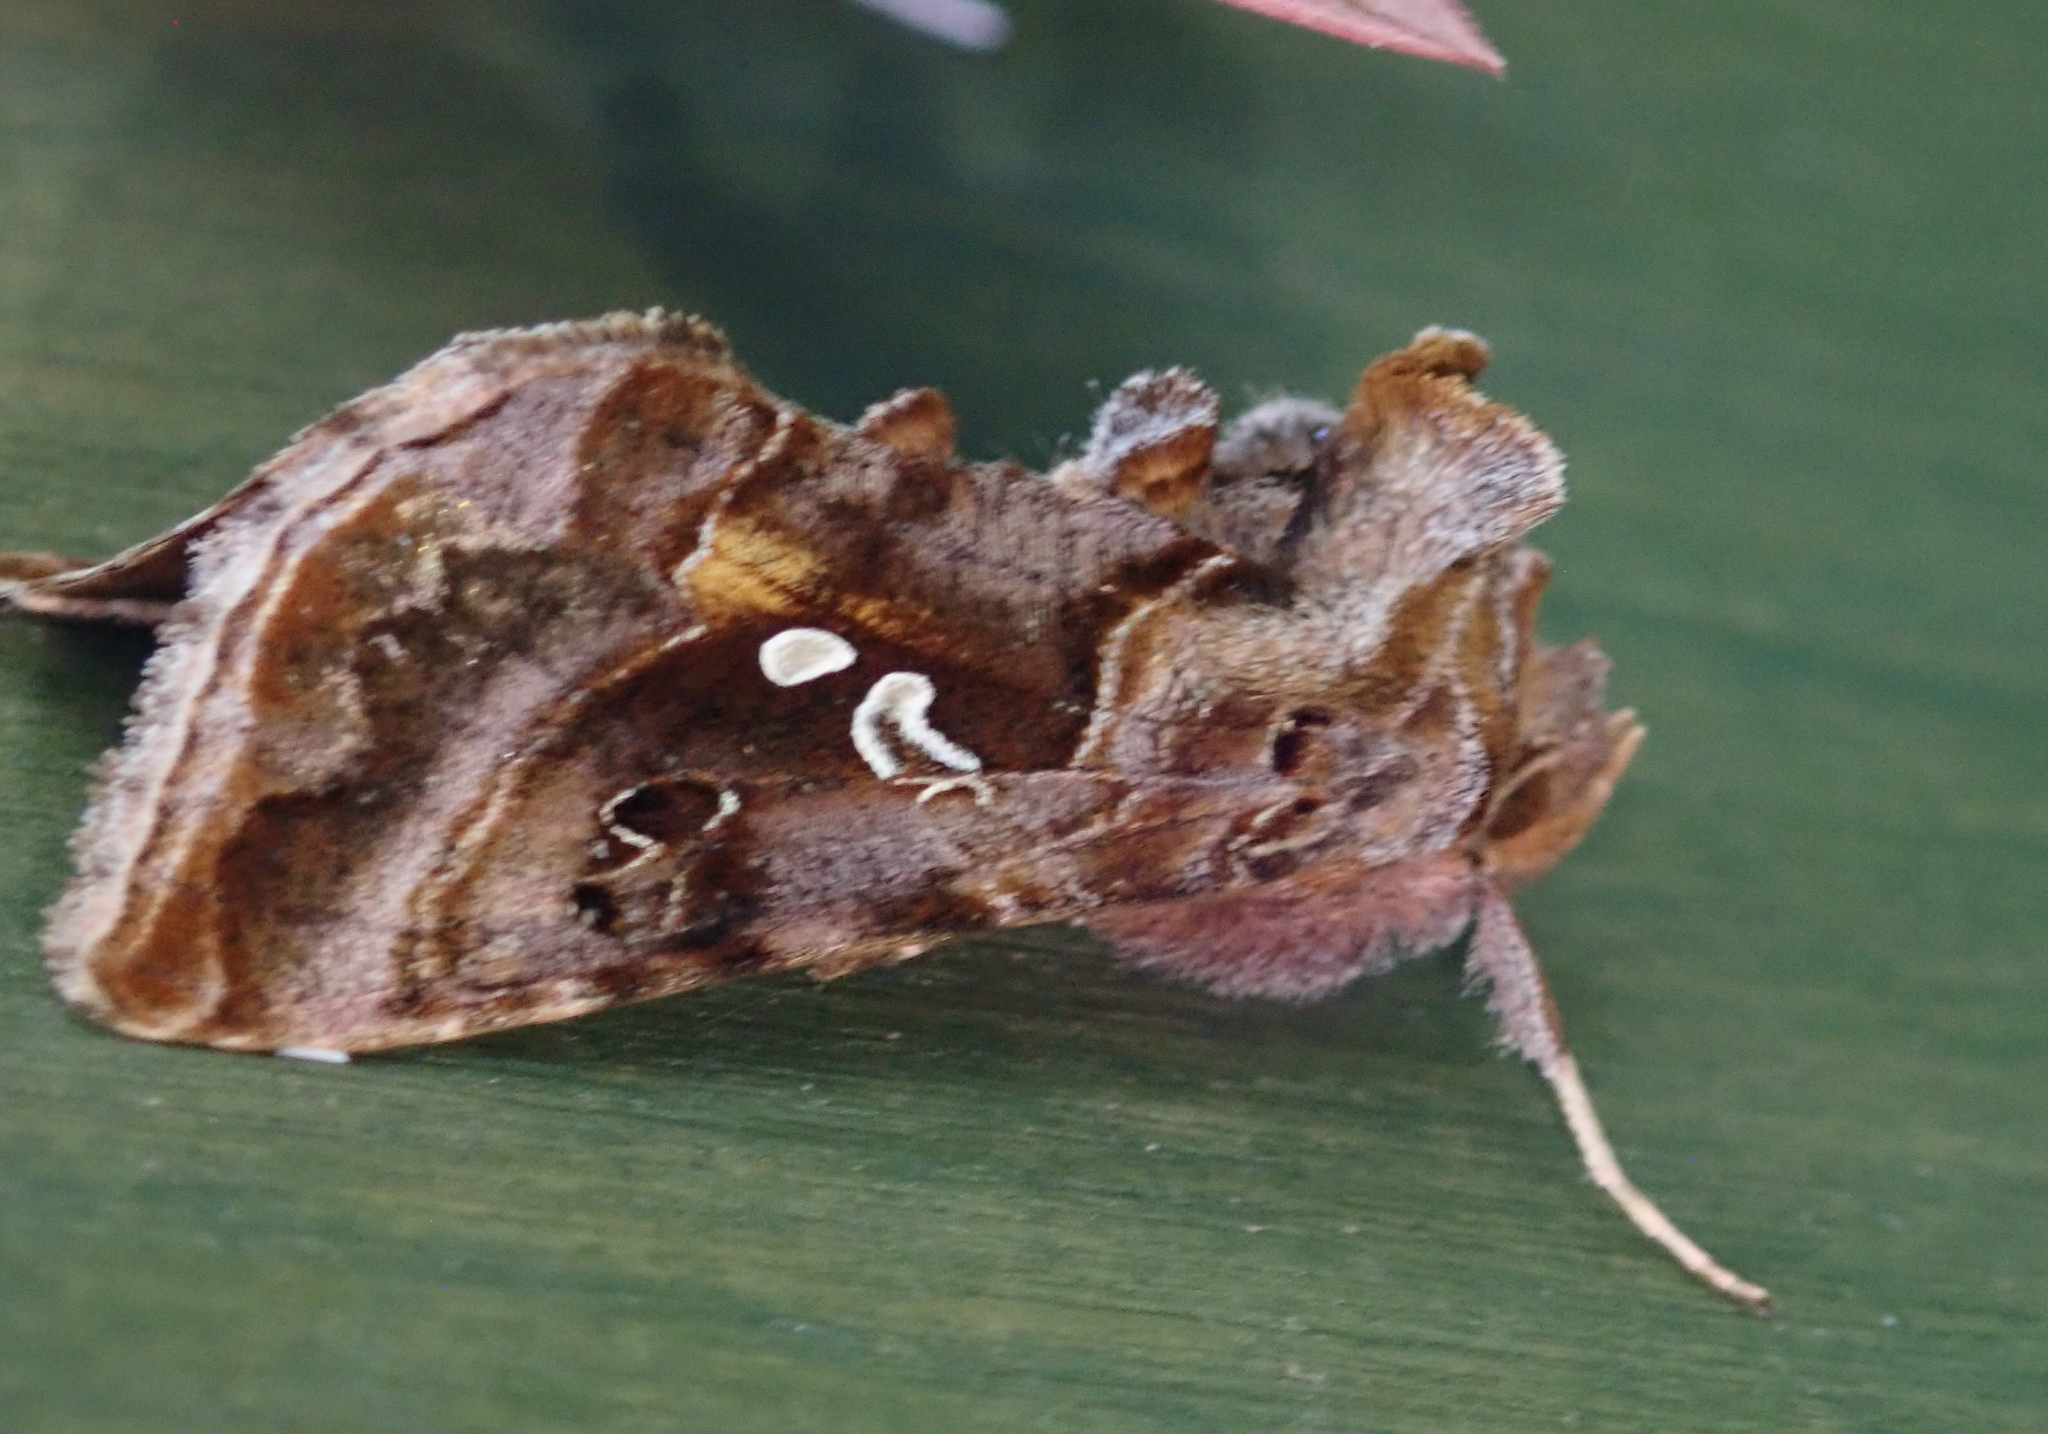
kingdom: Animalia
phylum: Arthropoda
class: Insecta
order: Lepidoptera
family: Noctuidae
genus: Autographa
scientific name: Autographa pulchrina
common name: Beautiful golden y
